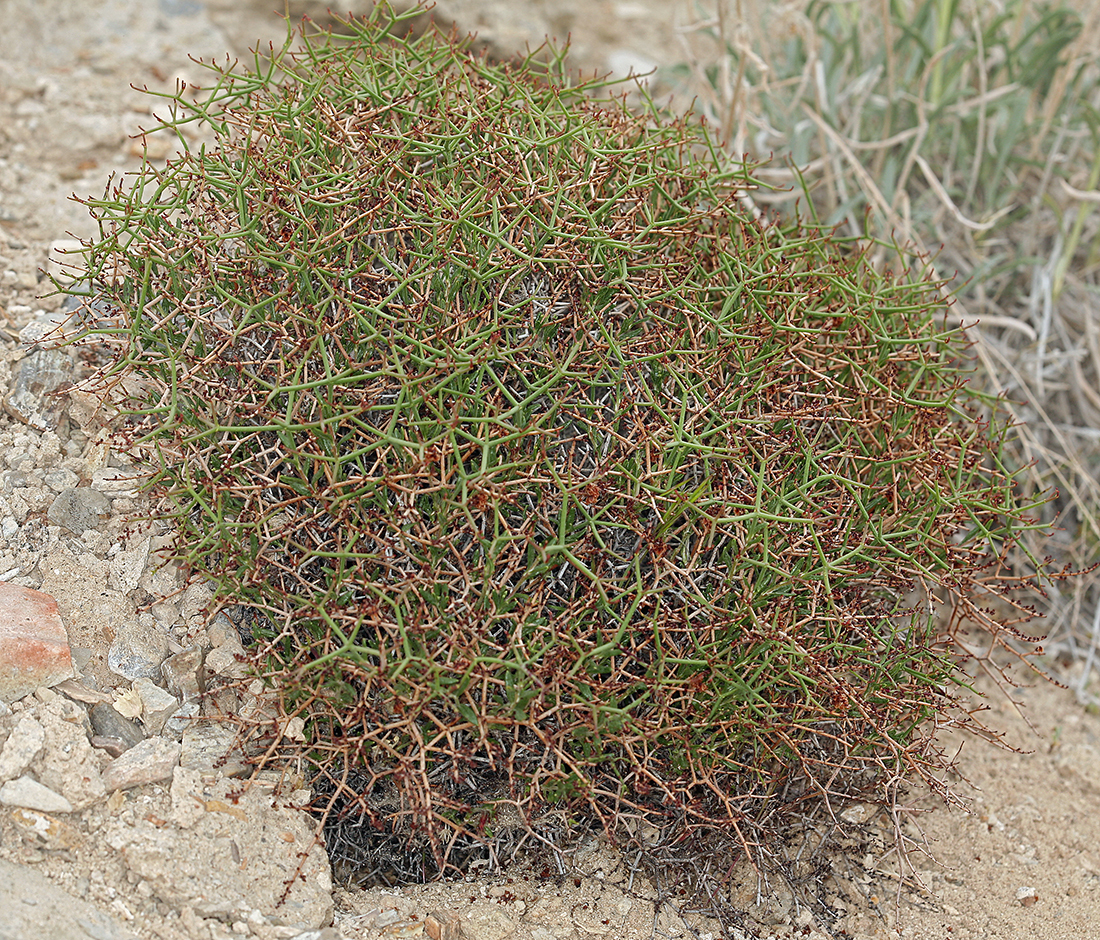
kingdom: Plantae
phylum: Tracheophyta
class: Magnoliopsida
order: Caryophyllales
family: Polygonaceae
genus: Eriogonum
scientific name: Eriogonum heermannii
